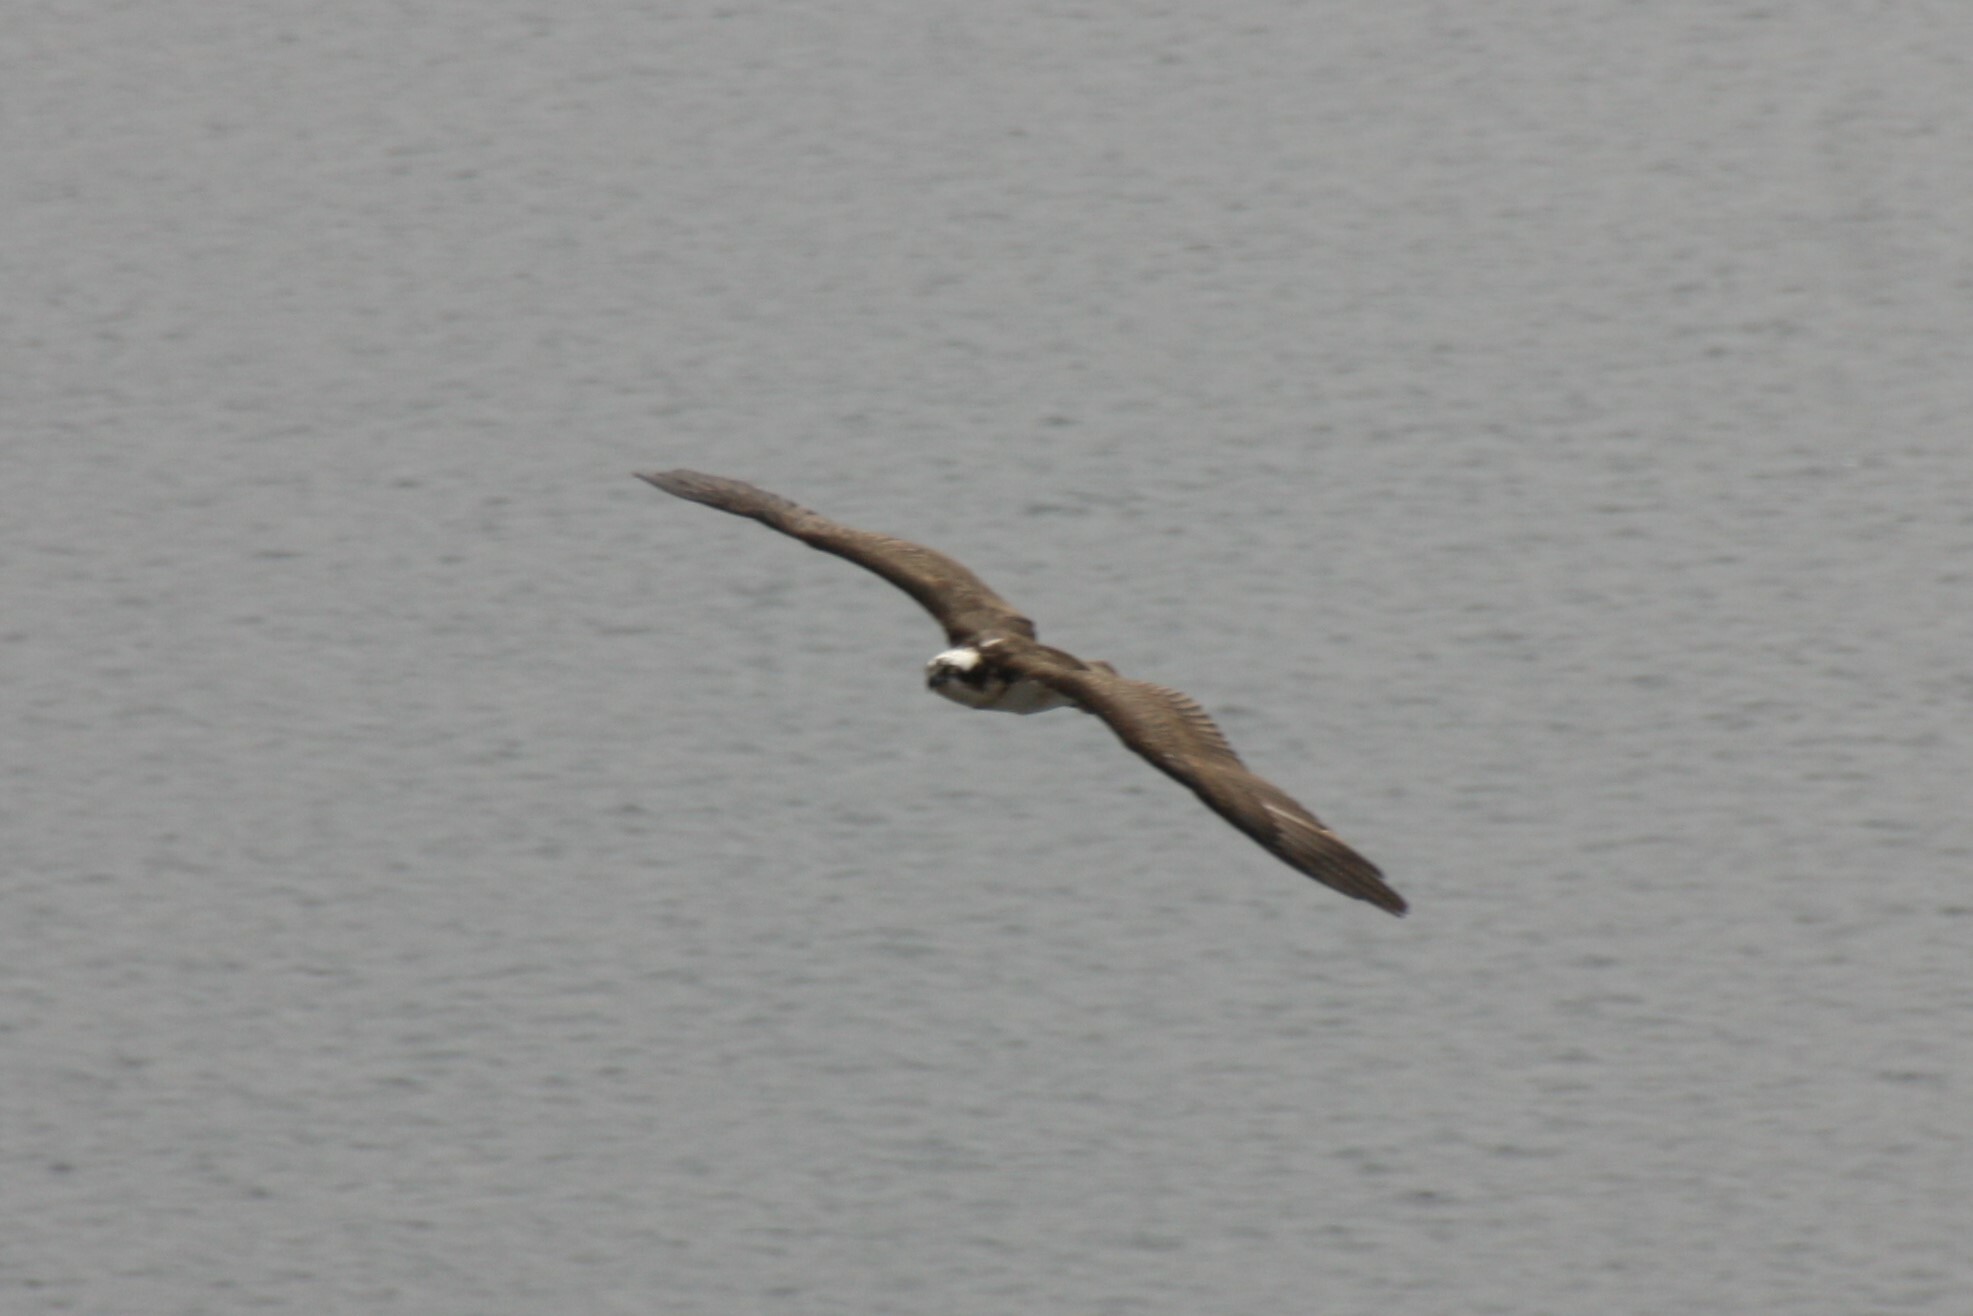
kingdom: Animalia
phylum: Chordata
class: Aves
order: Accipitriformes
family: Pandionidae
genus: Pandion
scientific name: Pandion haliaetus
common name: Osprey
